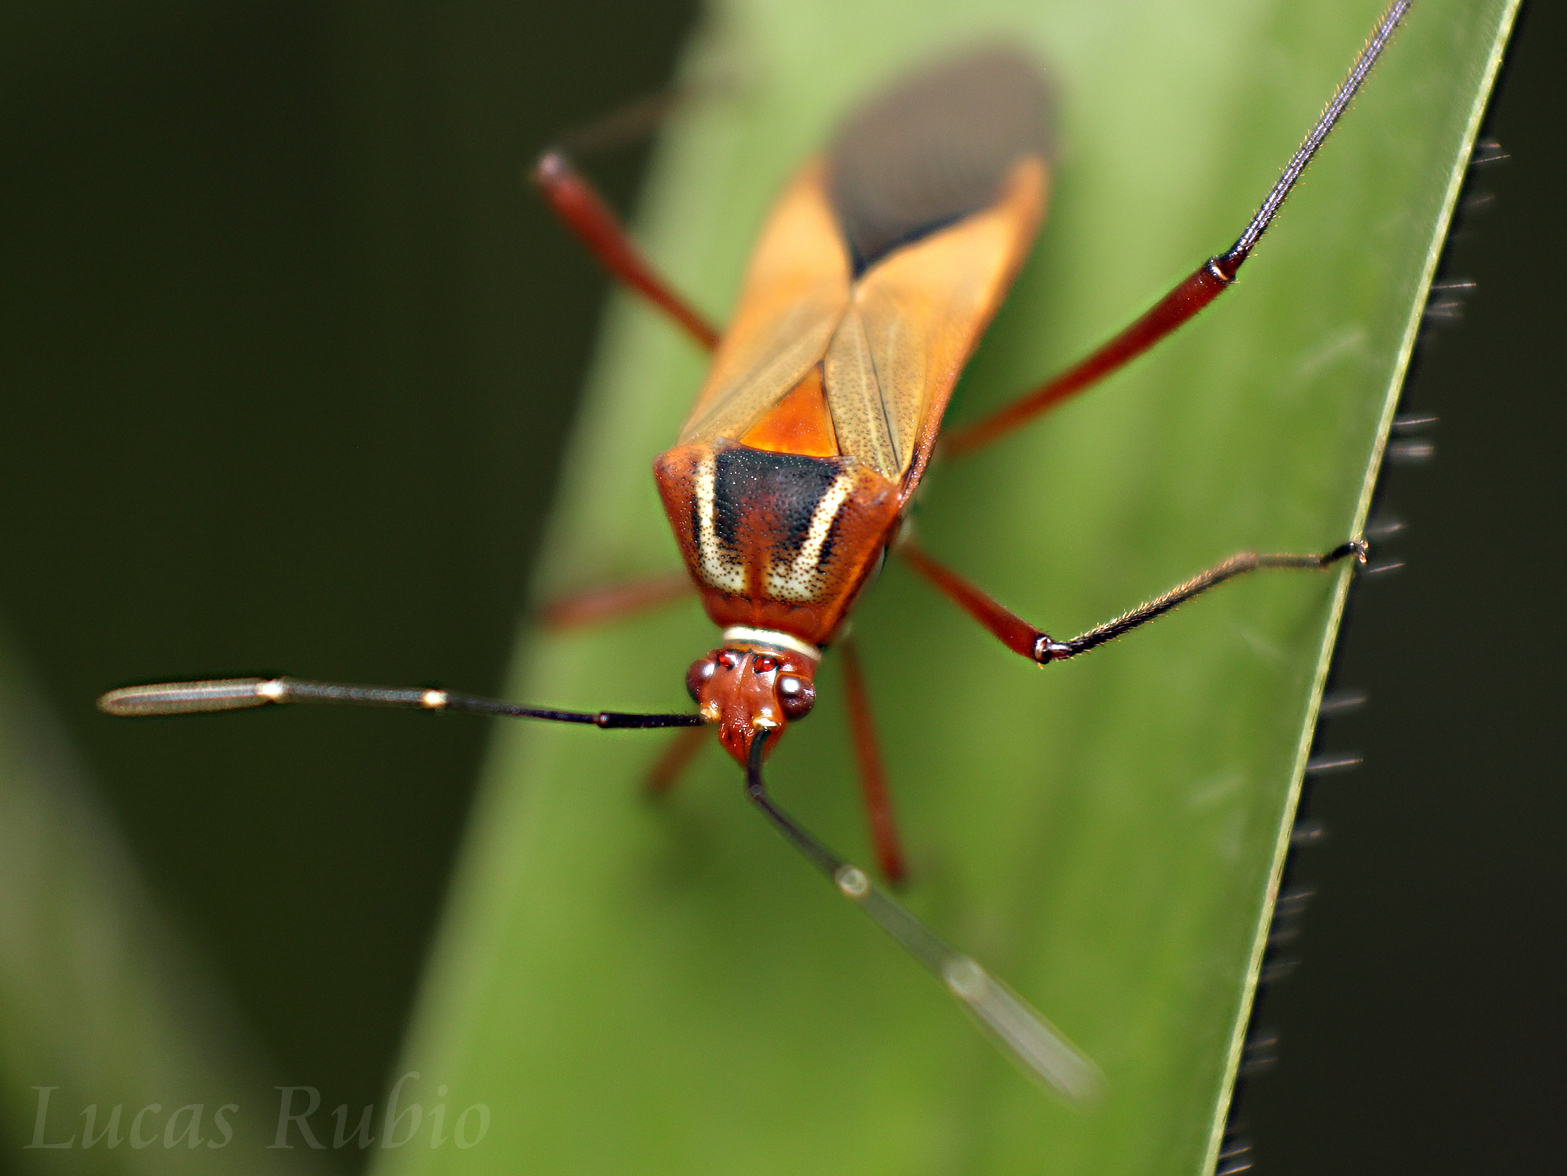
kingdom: Animalia
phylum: Arthropoda
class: Insecta
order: Hemiptera
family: Coreidae
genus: Hypselonotus
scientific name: Hypselonotus interruptus
